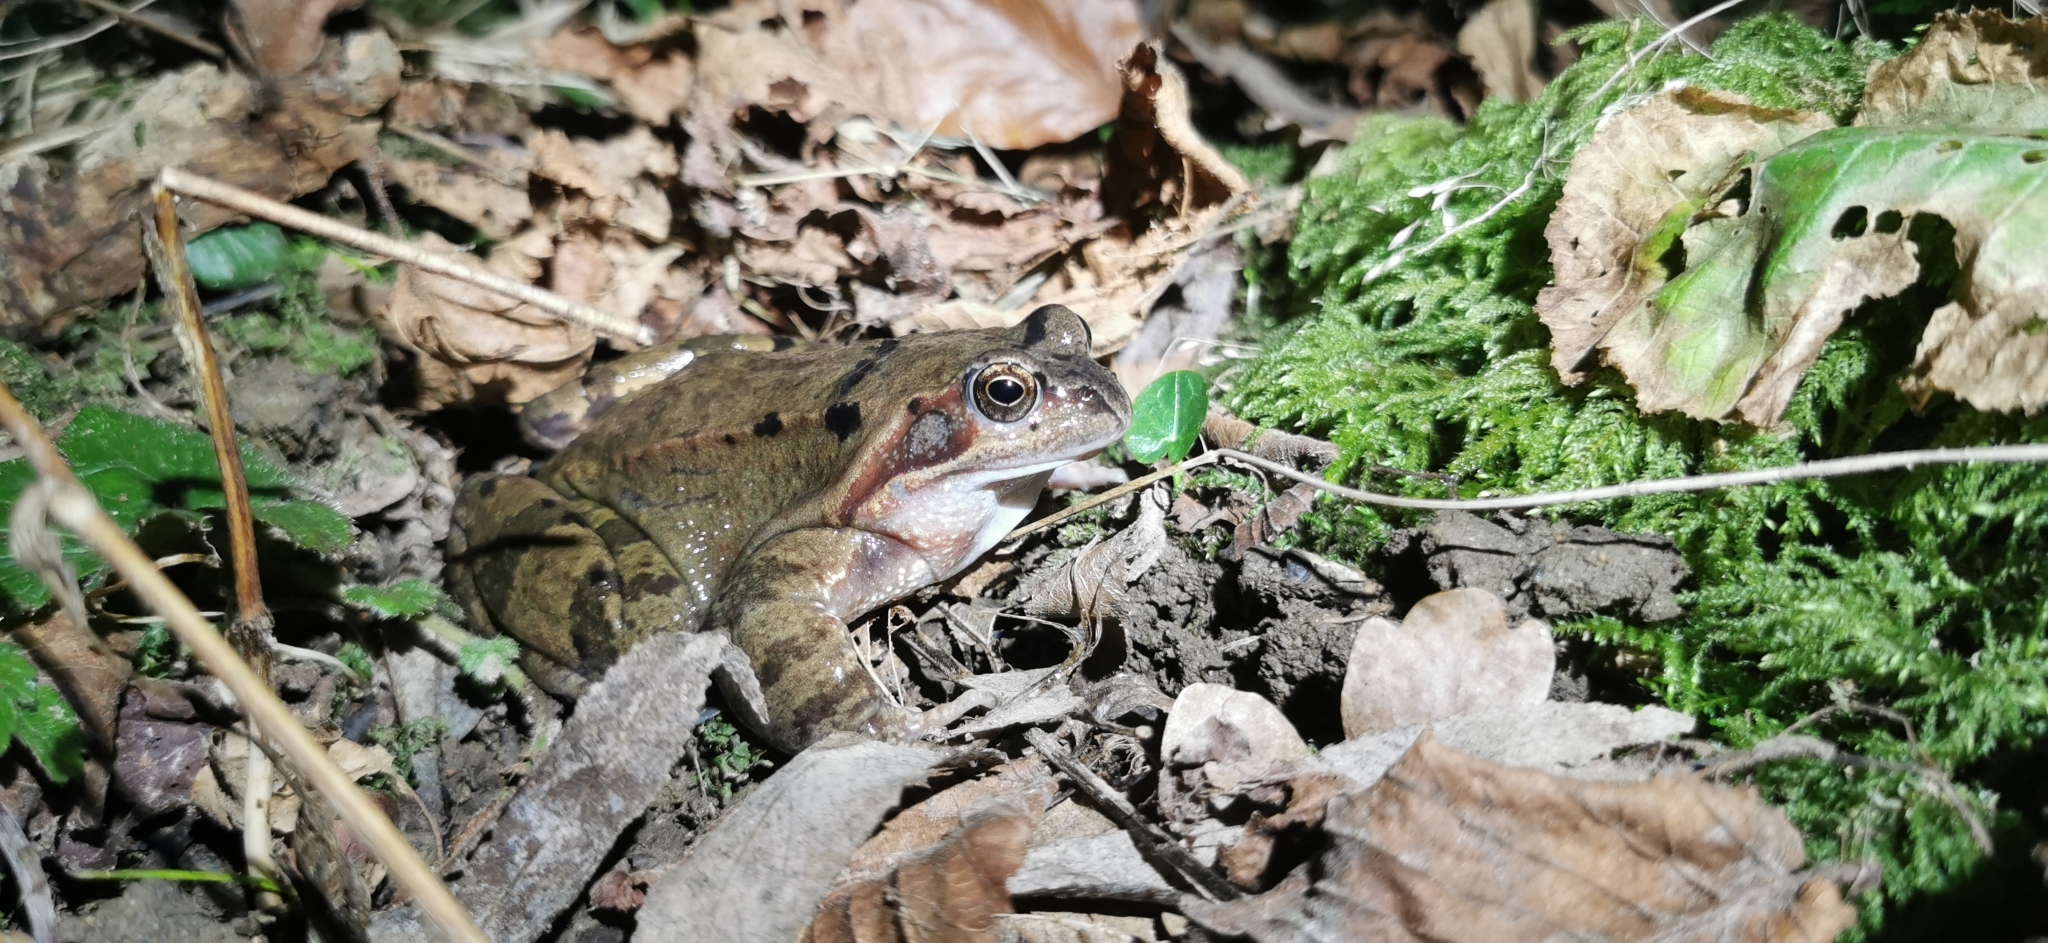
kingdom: Animalia
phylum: Chordata
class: Amphibia
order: Anura
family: Ranidae
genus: Rana
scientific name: Rana temporaria
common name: Common frog
